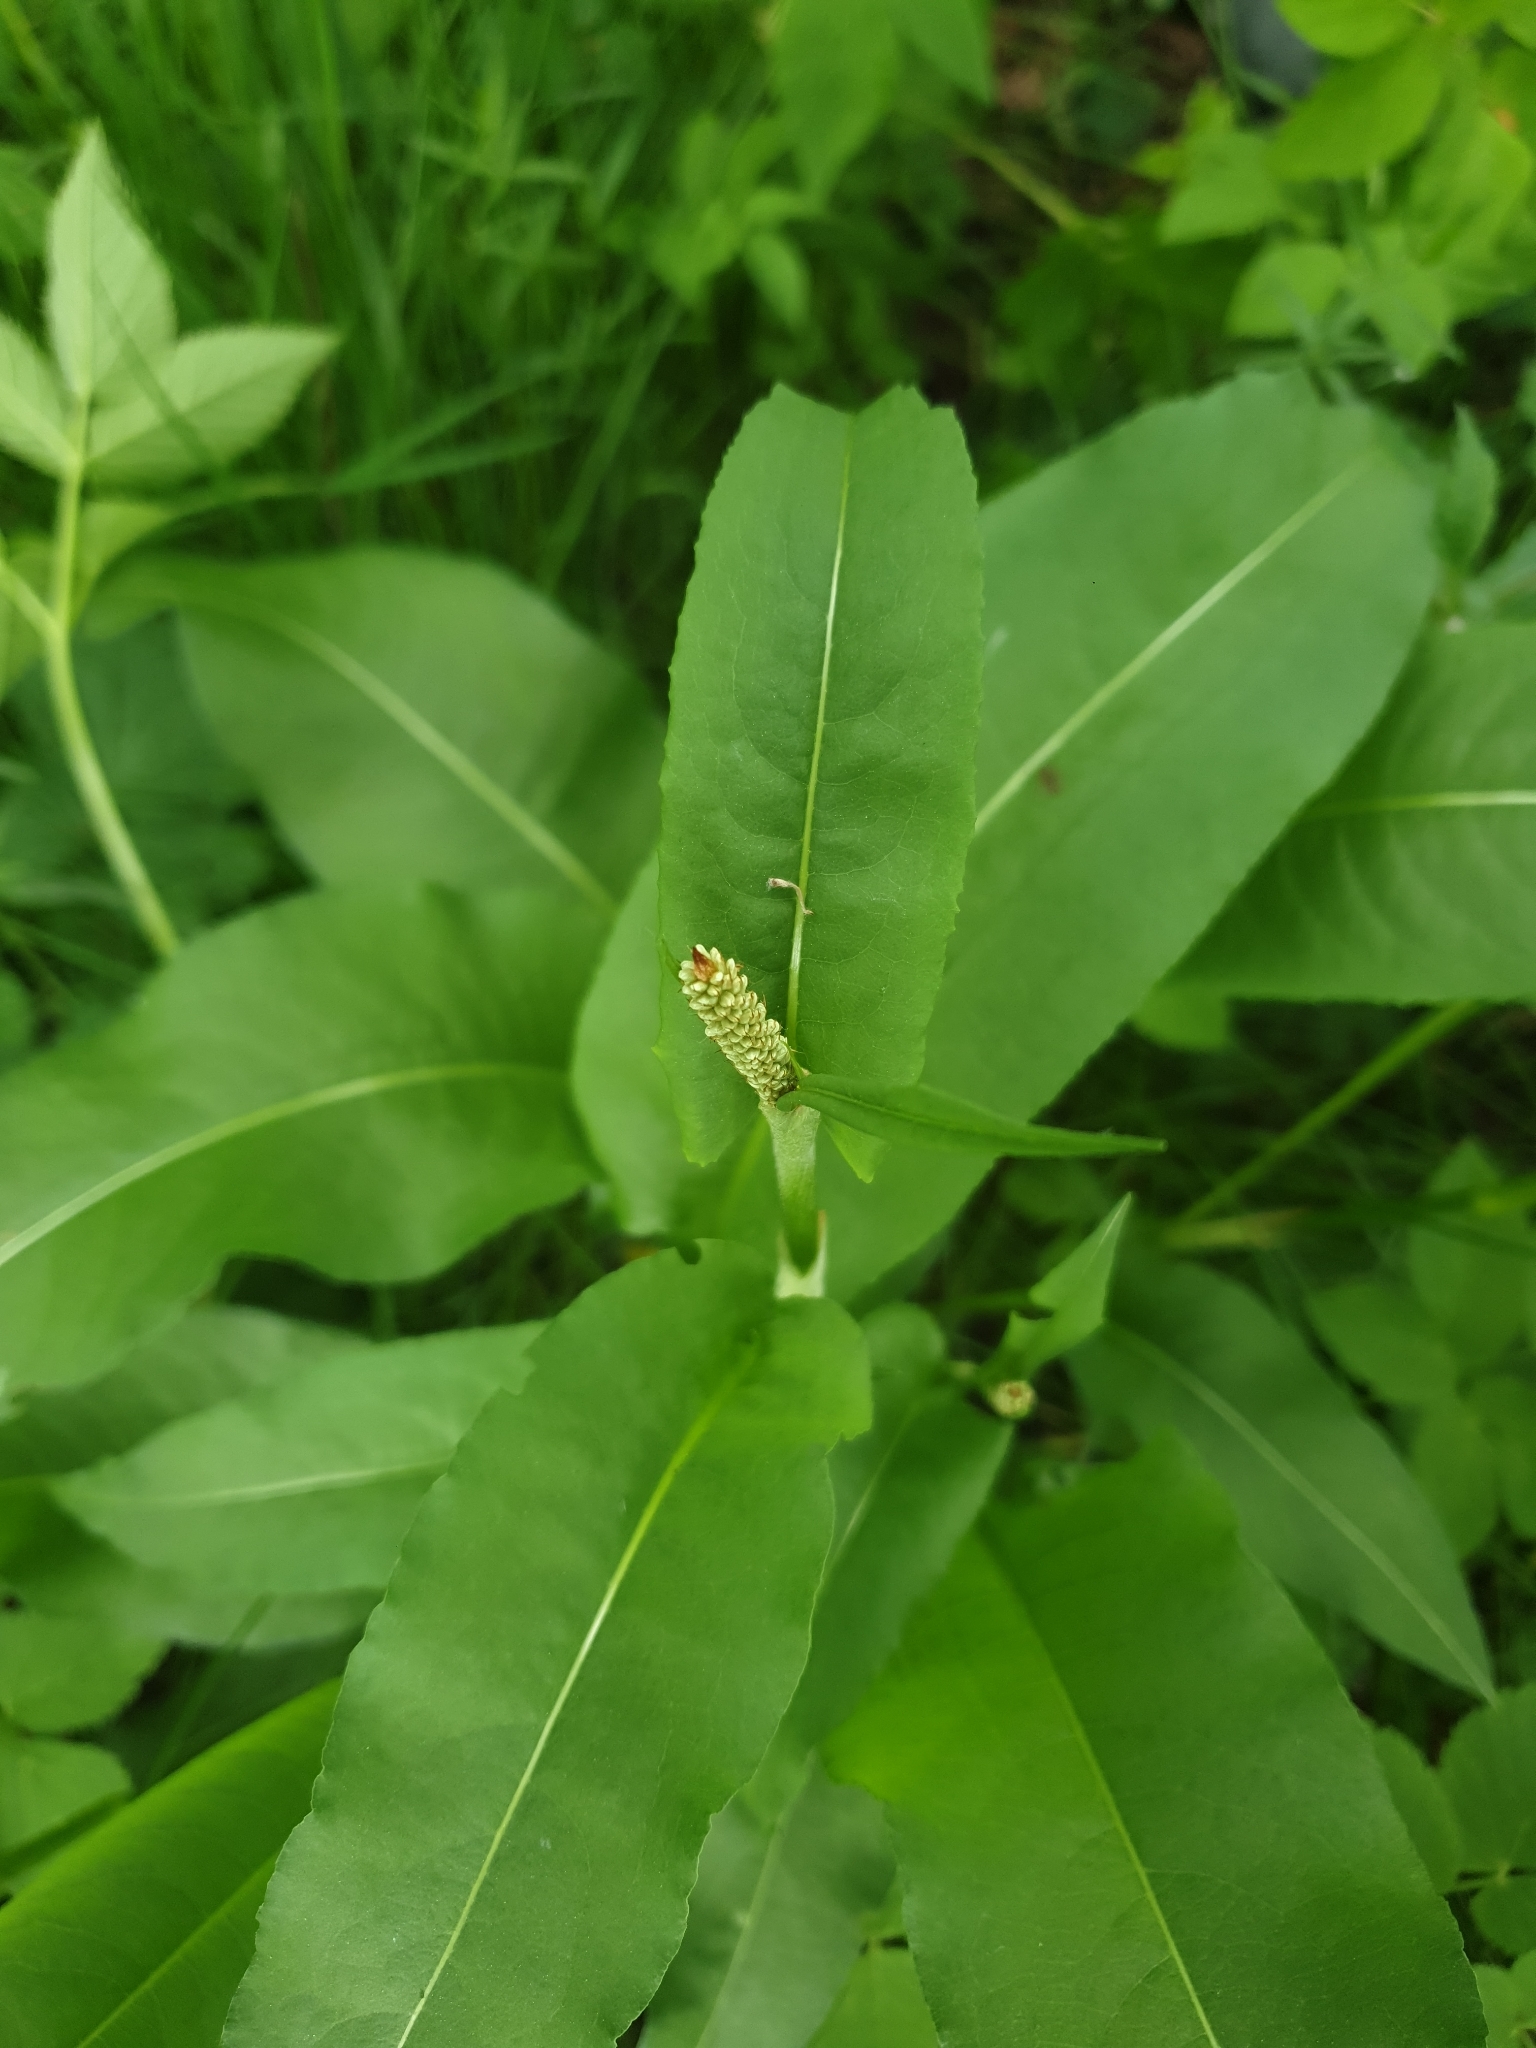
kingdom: Plantae
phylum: Tracheophyta
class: Magnoliopsida
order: Caryophyllales
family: Polygonaceae
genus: Bistorta
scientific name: Bistorta officinalis
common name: Common bistort
